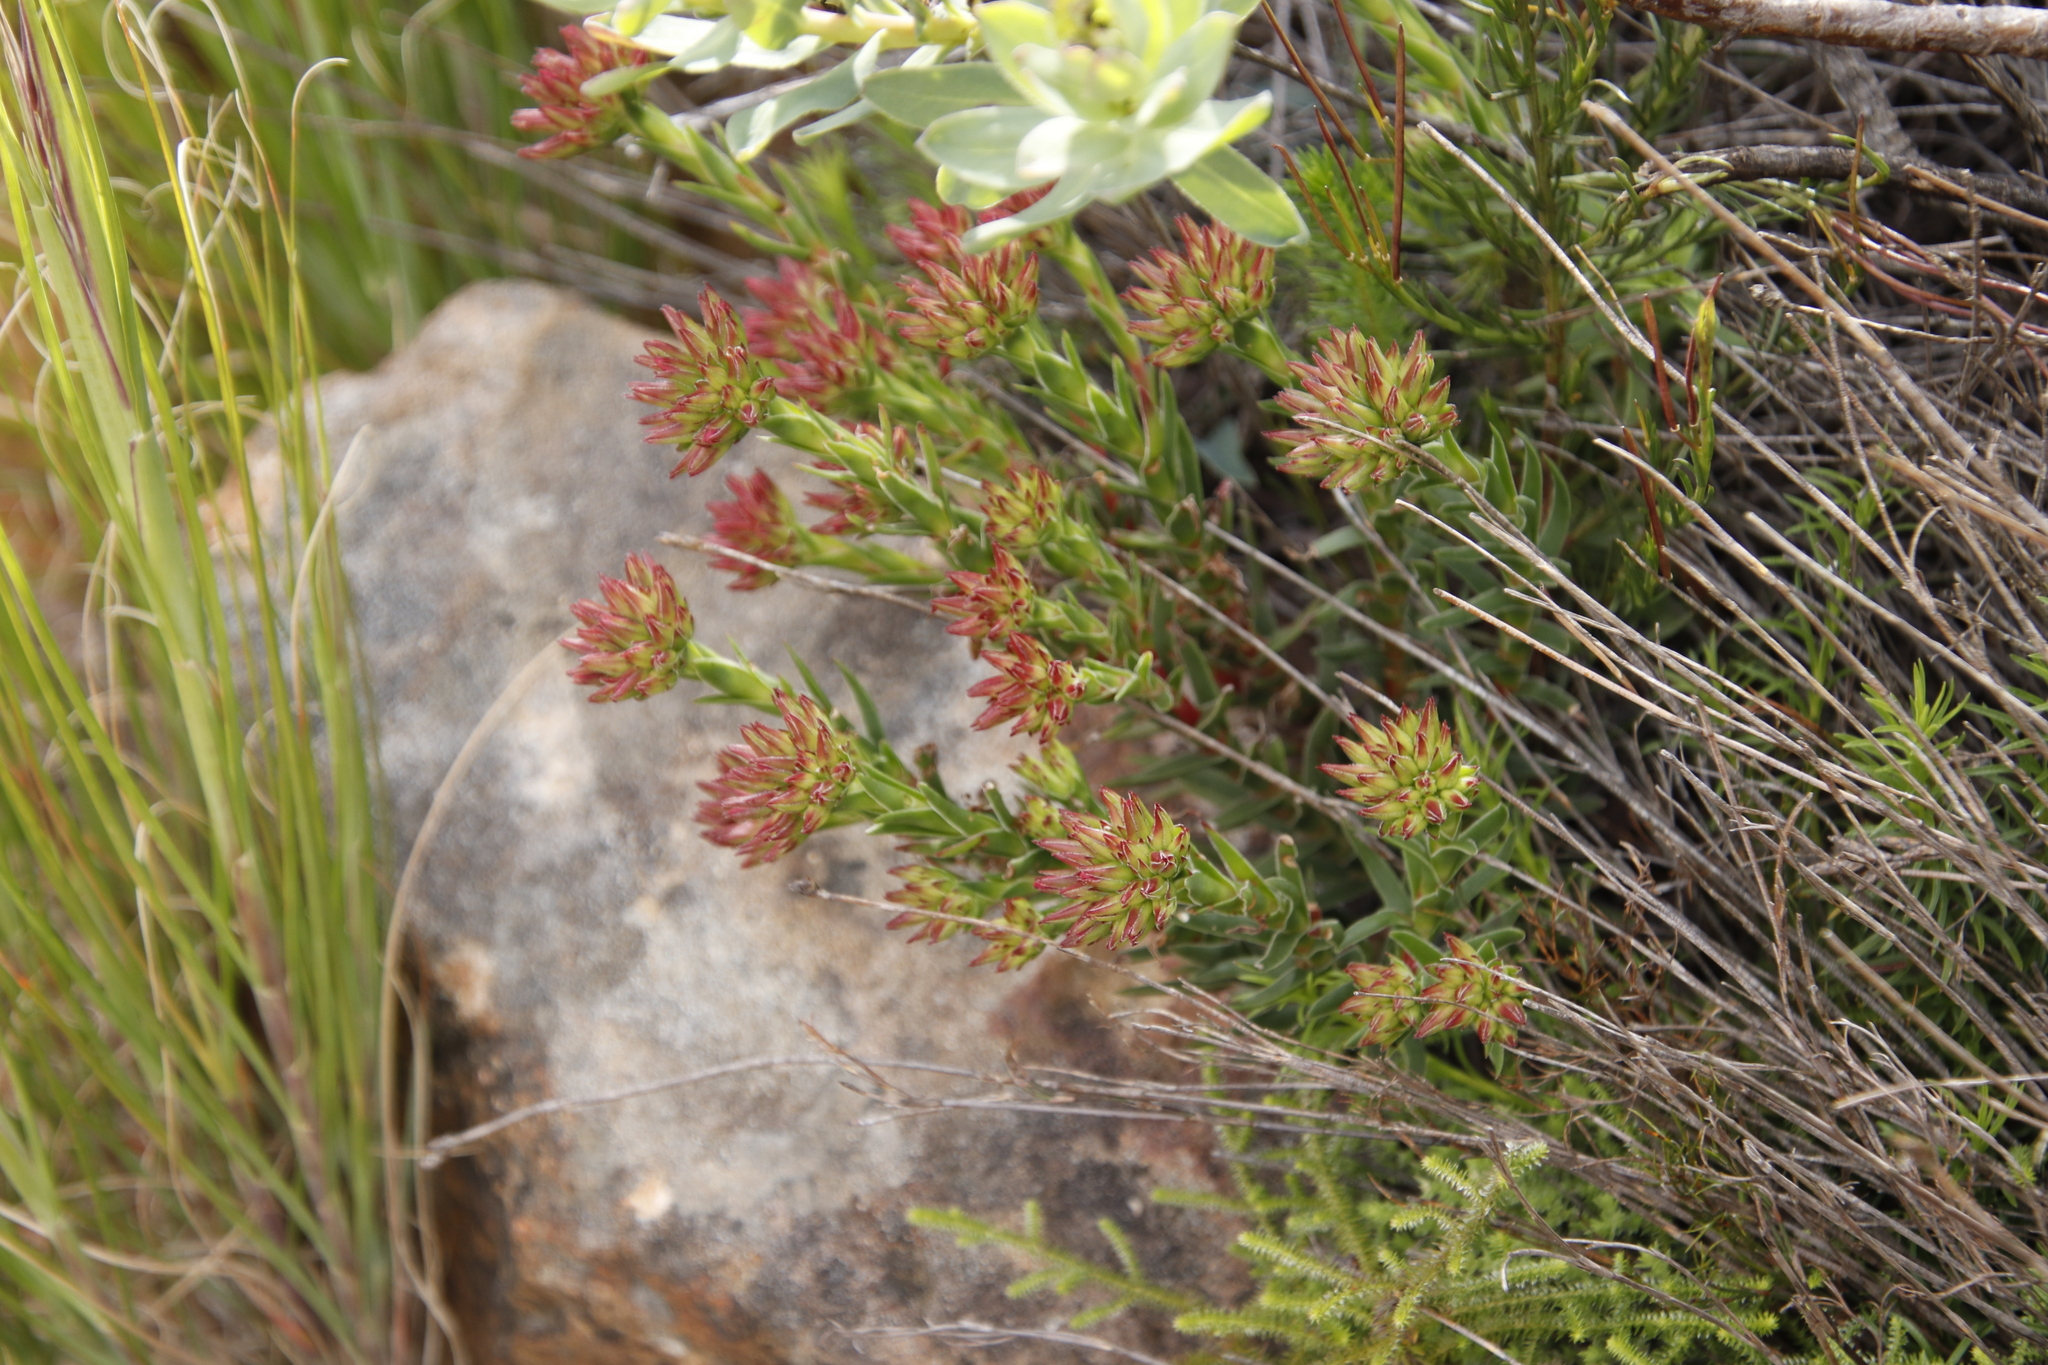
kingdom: Plantae
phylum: Tracheophyta
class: Magnoliopsida
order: Saxifragales
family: Crassulaceae
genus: Crassula
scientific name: Crassula fascicularis
